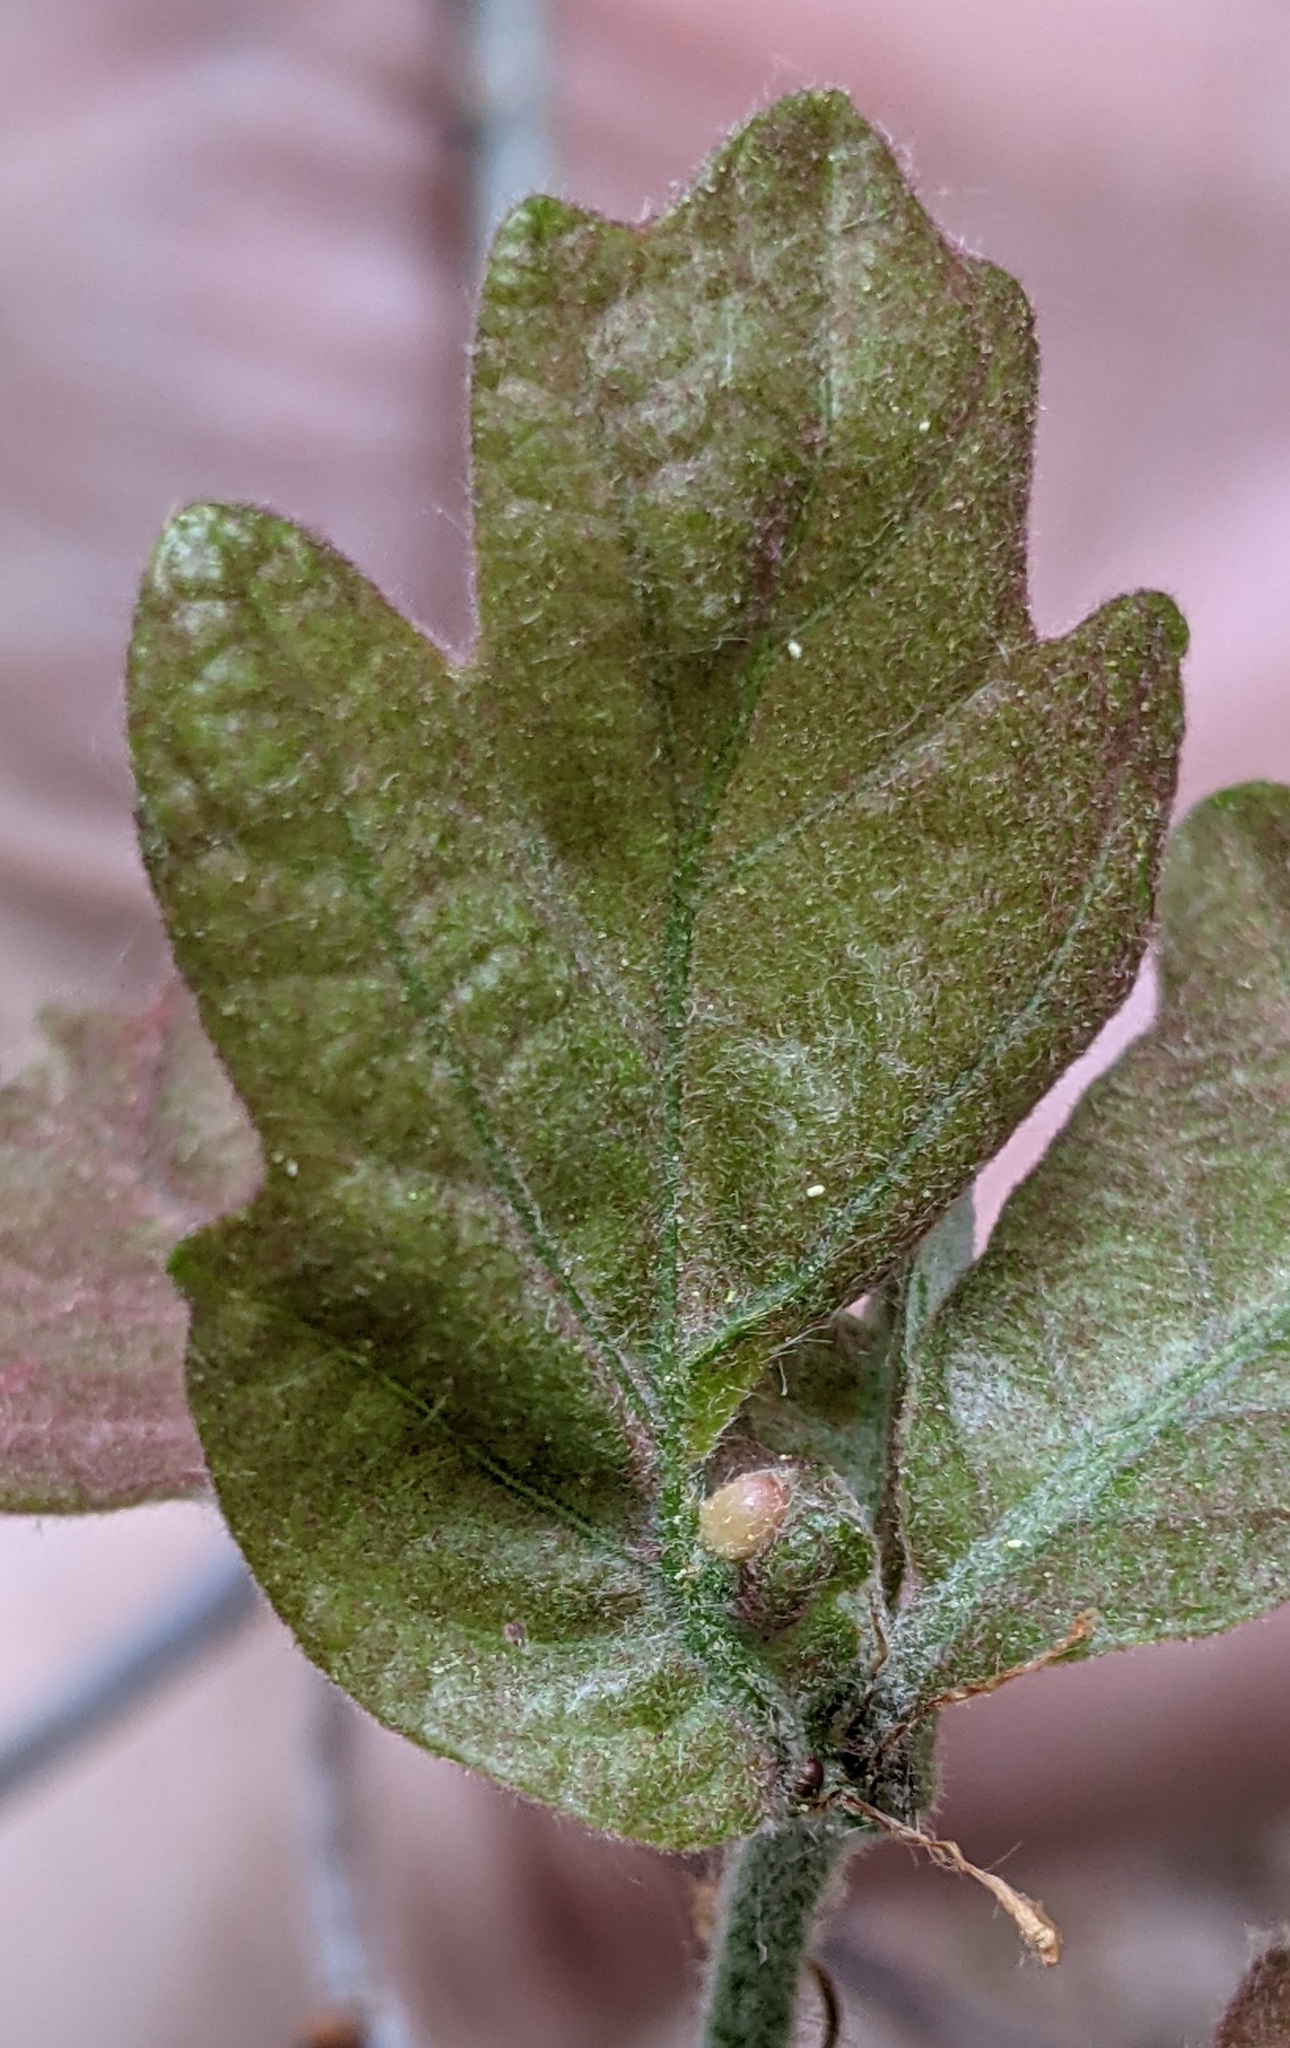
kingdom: Animalia
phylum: Arthropoda
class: Insecta
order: Hymenoptera
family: Cynipidae
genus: Neuroterus
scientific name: Neuroterus
